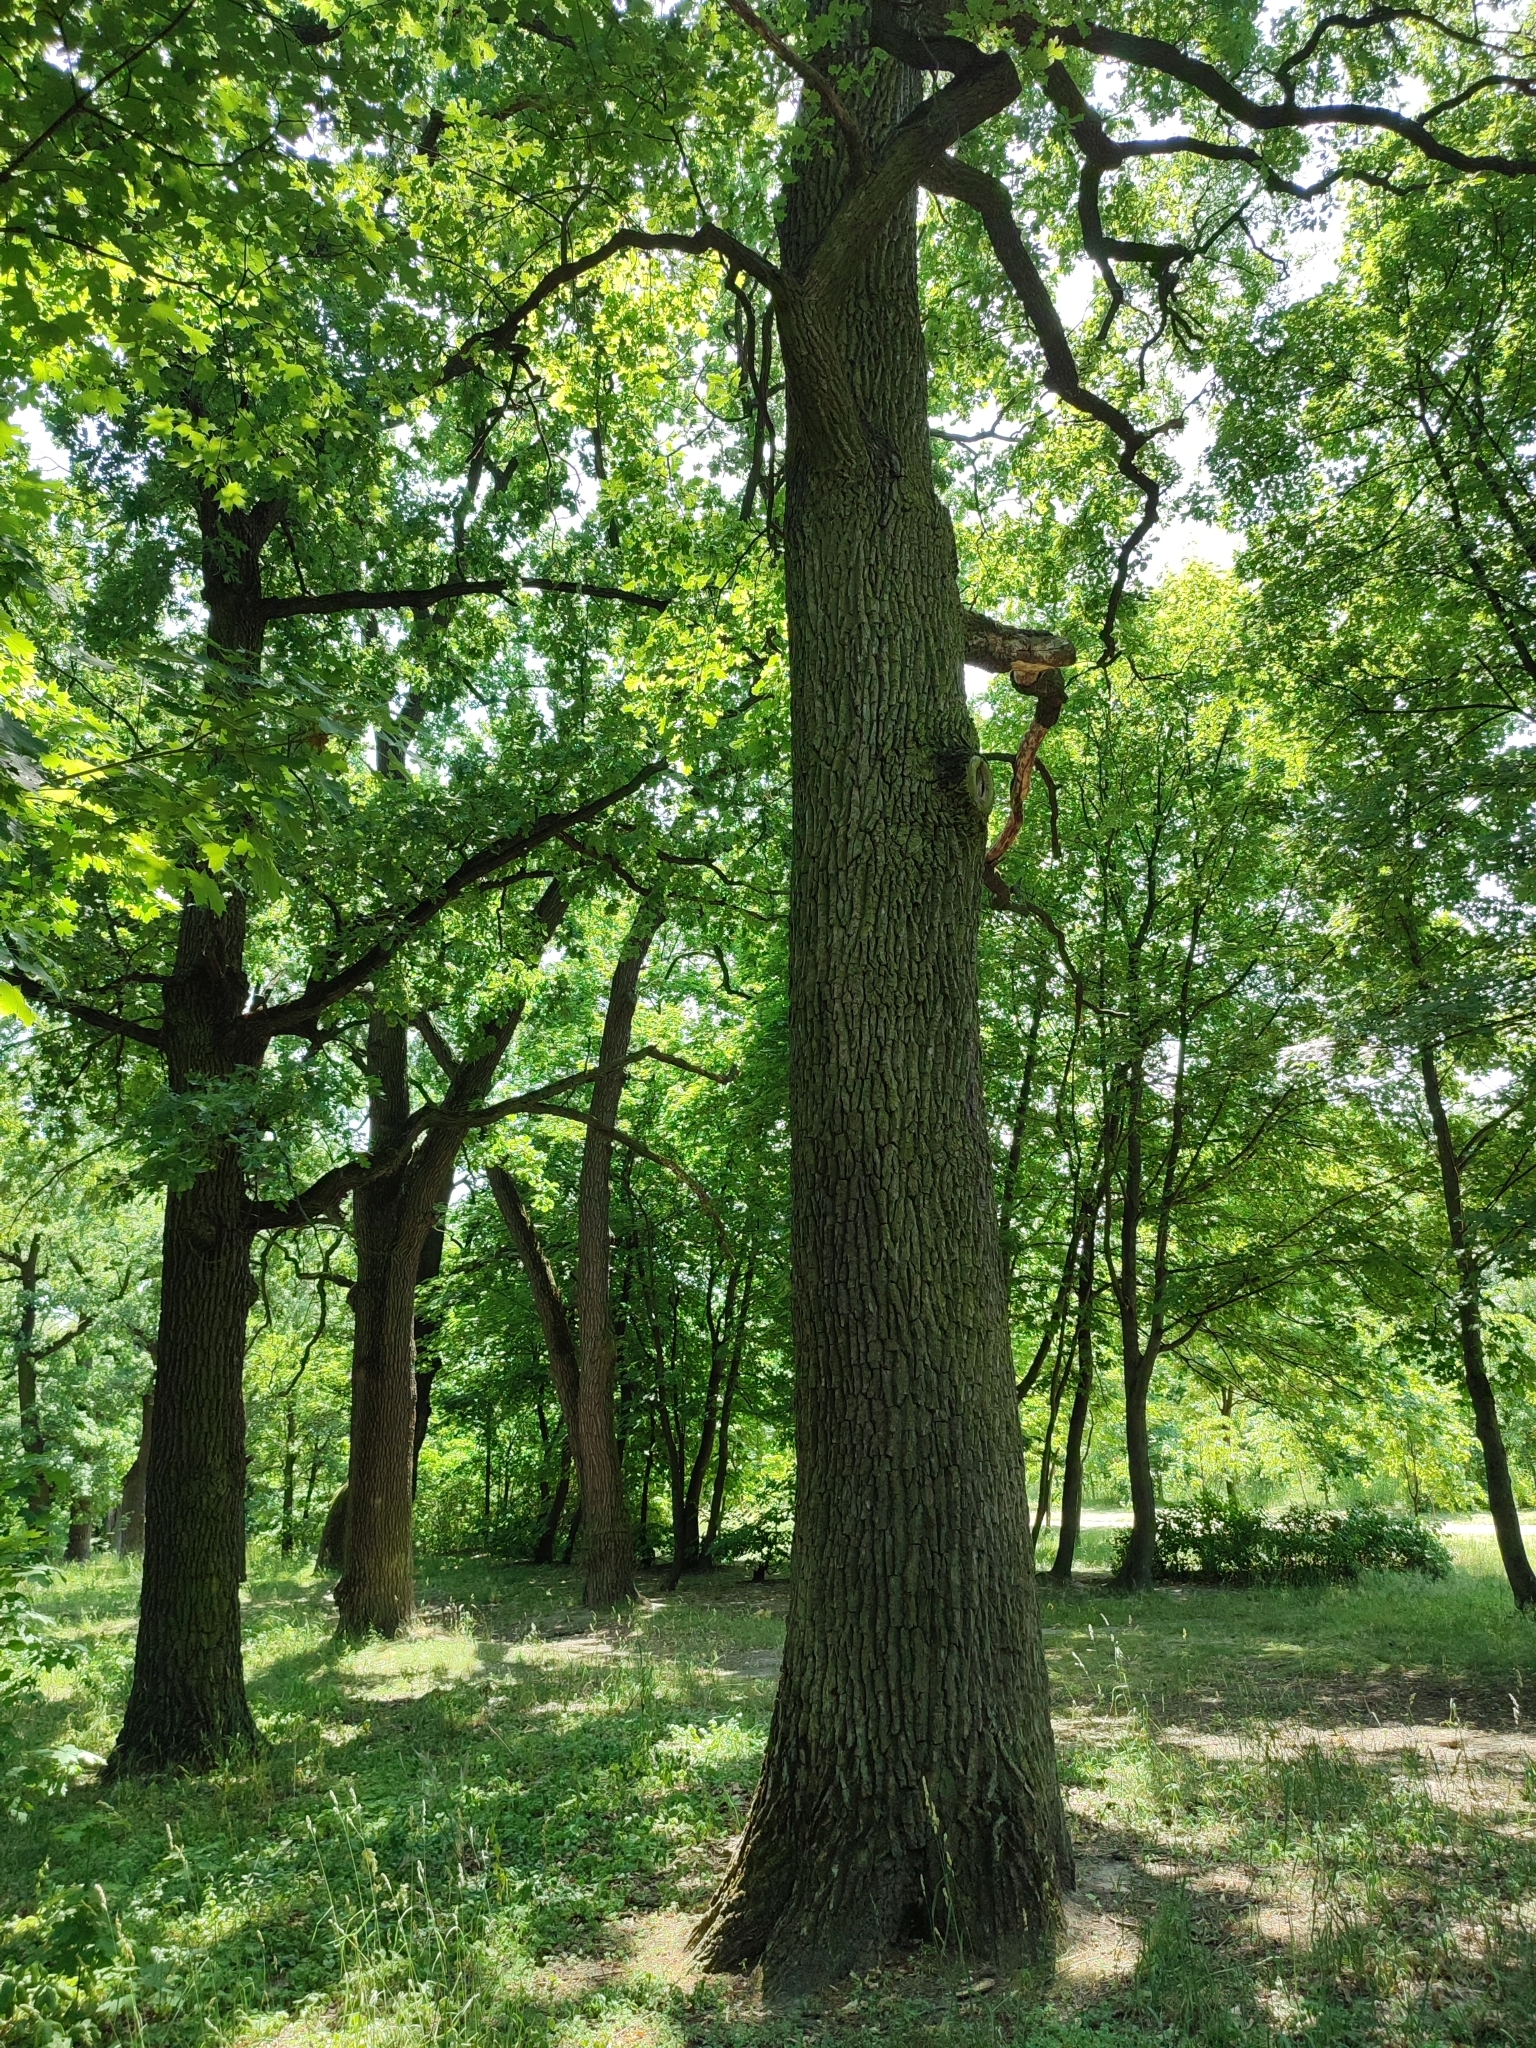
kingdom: Plantae
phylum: Tracheophyta
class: Magnoliopsida
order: Fagales
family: Fagaceae
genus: Quercus
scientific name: Quercus robur
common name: Pedunculate oak
